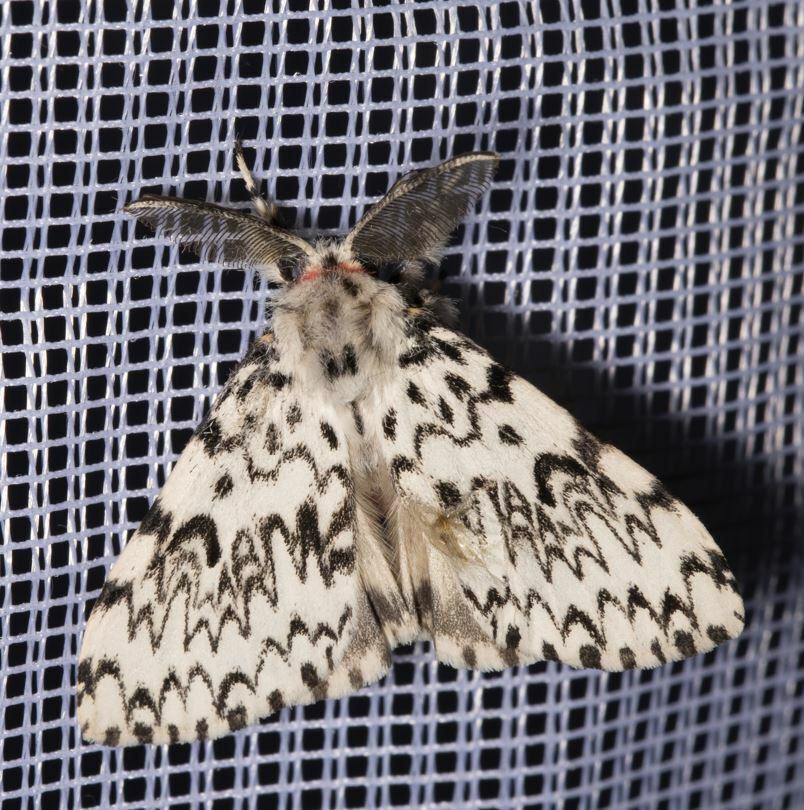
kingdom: Animalia
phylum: Arthropoda
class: Insecta
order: Lepidoptera
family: Erebidae
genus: Lymantria
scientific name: Lymantria monacha
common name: Black arches
